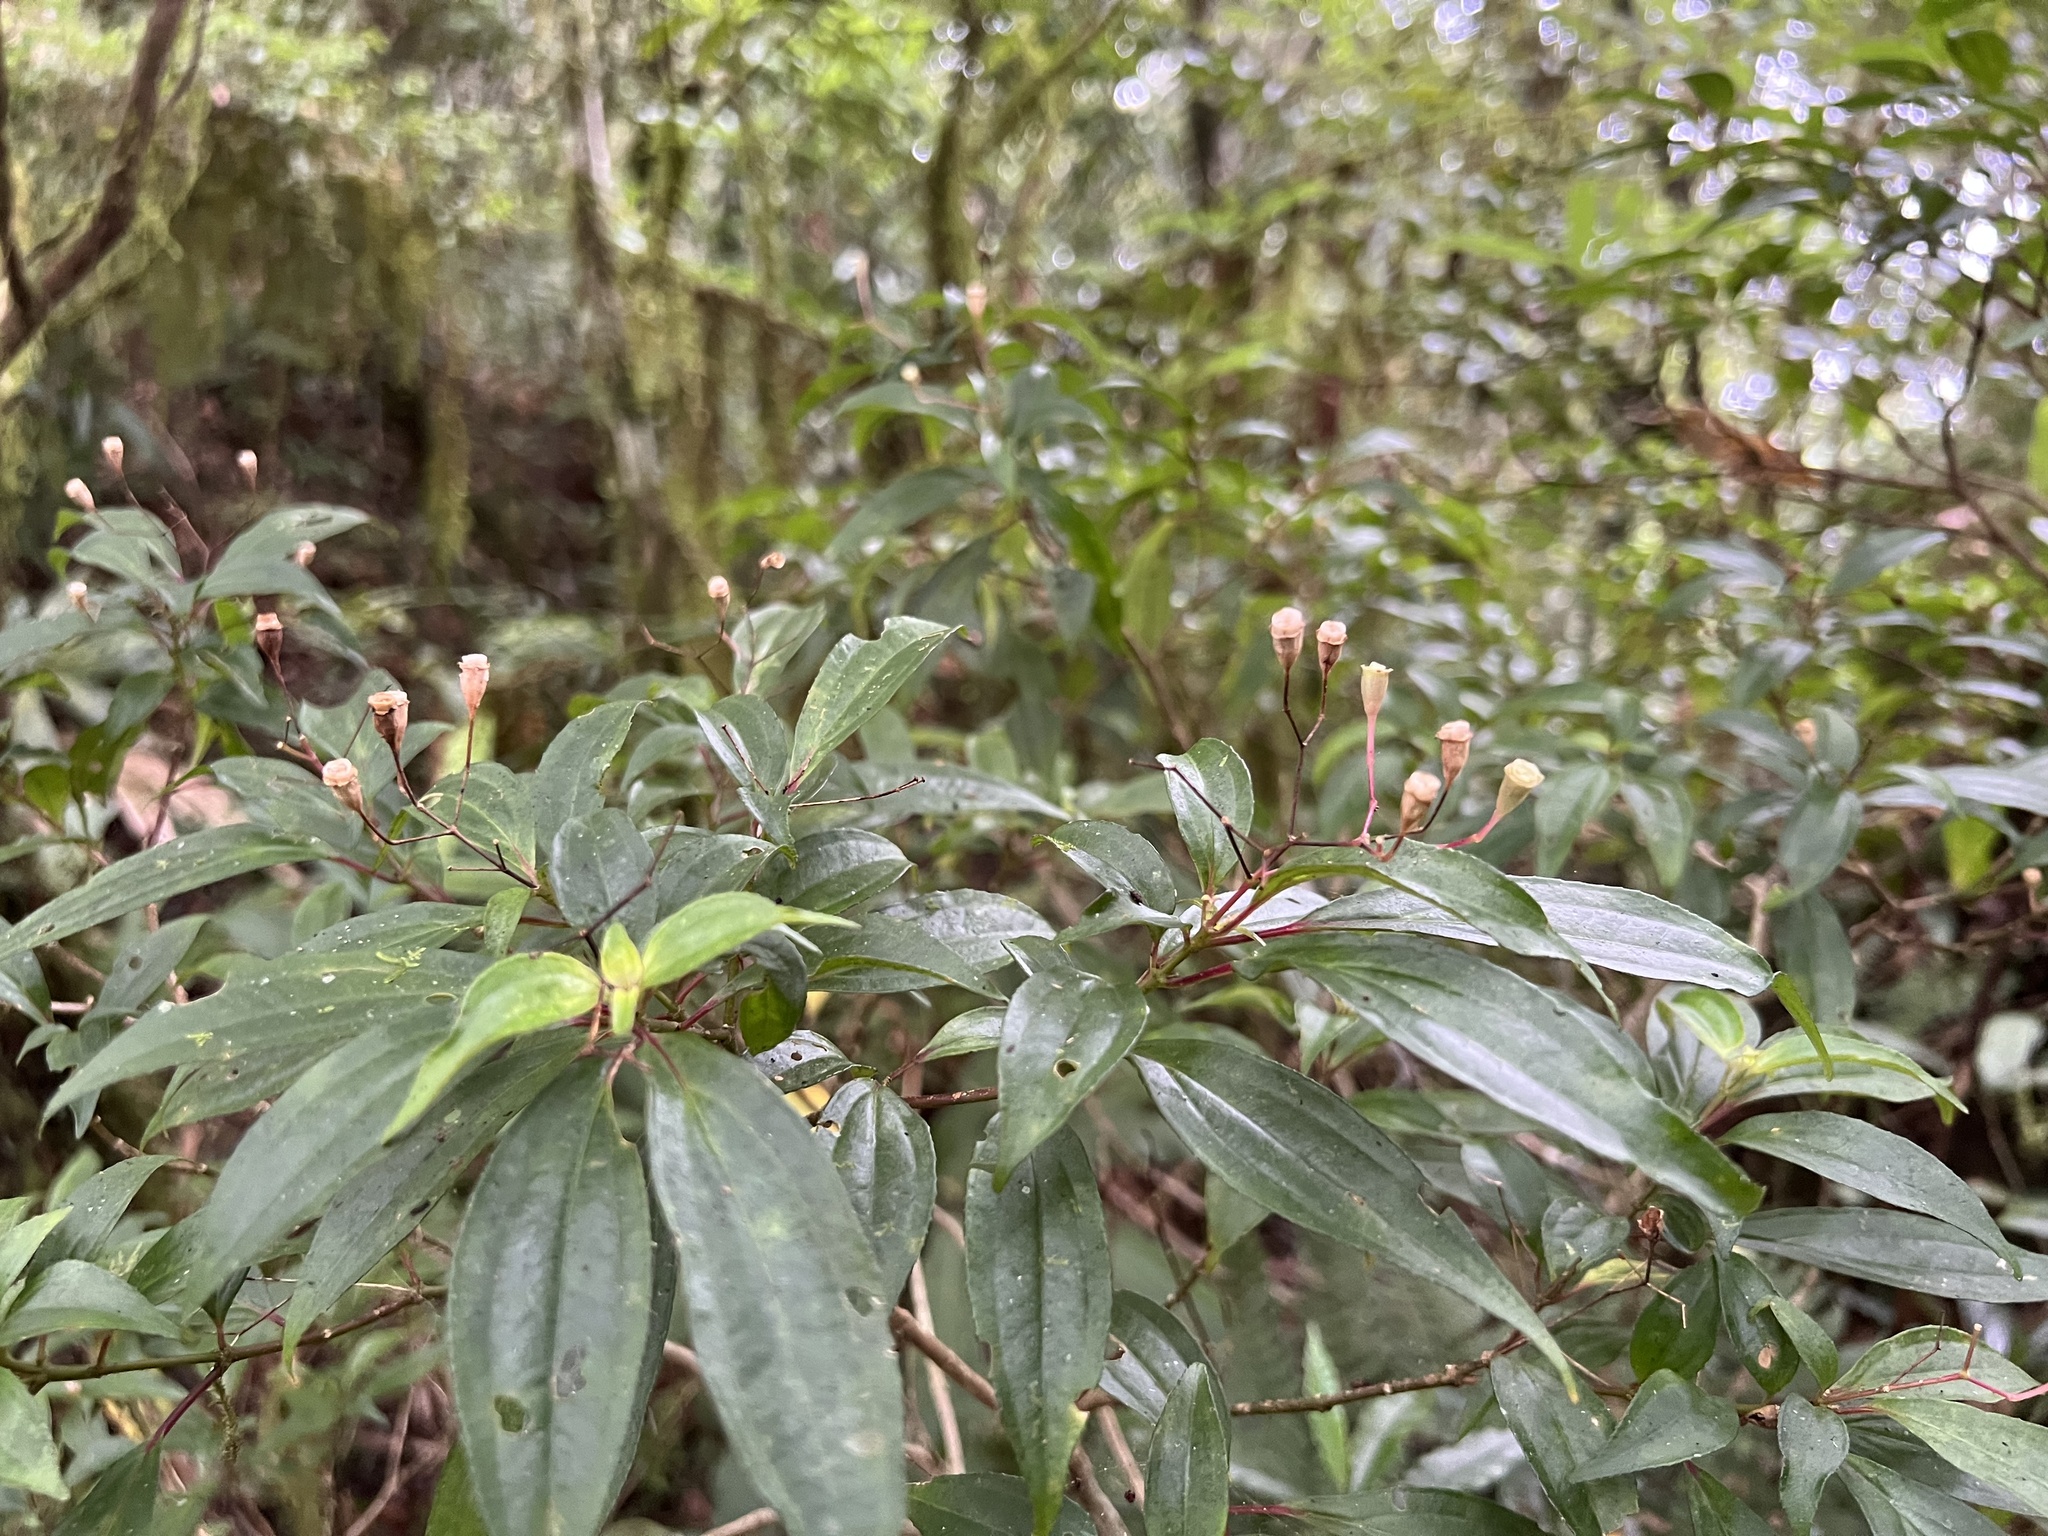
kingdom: Plantae
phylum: Tracheophyta
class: Magnoliopsida
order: Myrtales
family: Melastomataceae
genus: Bredia
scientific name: Bredia oldhamii
